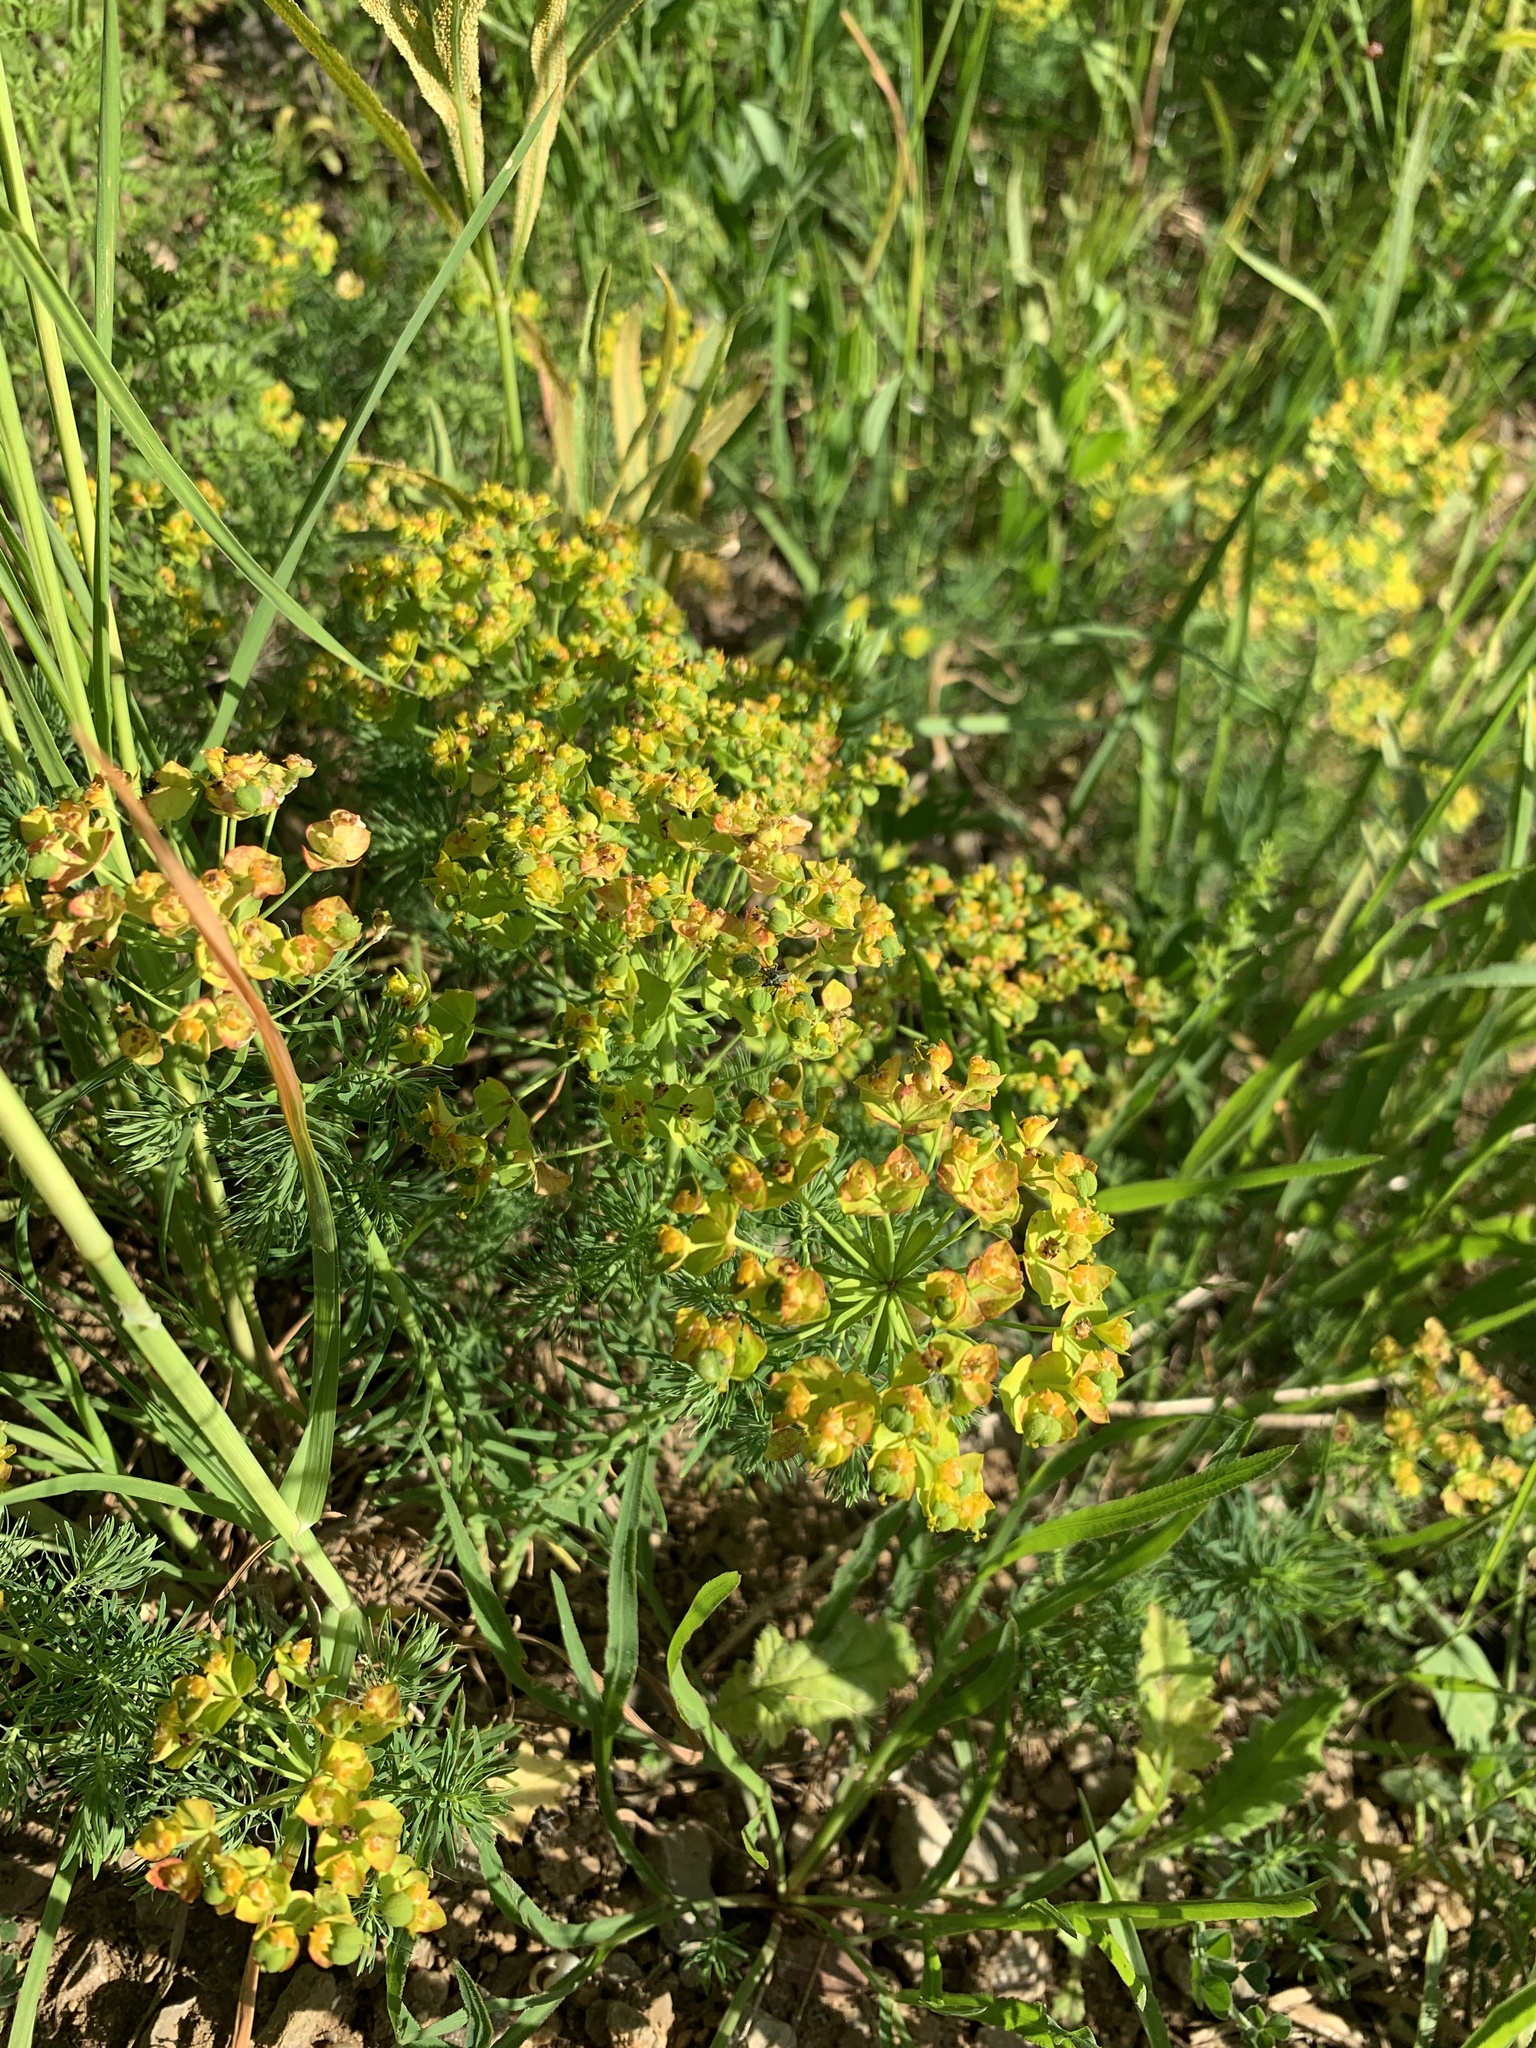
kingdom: Plantae
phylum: Tracheophyta
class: Magnoliopsida
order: Malpighiales
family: Euphorbiaceae
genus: Euphorbia
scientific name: Euphorbia cyparissias
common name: Cypress spurge
